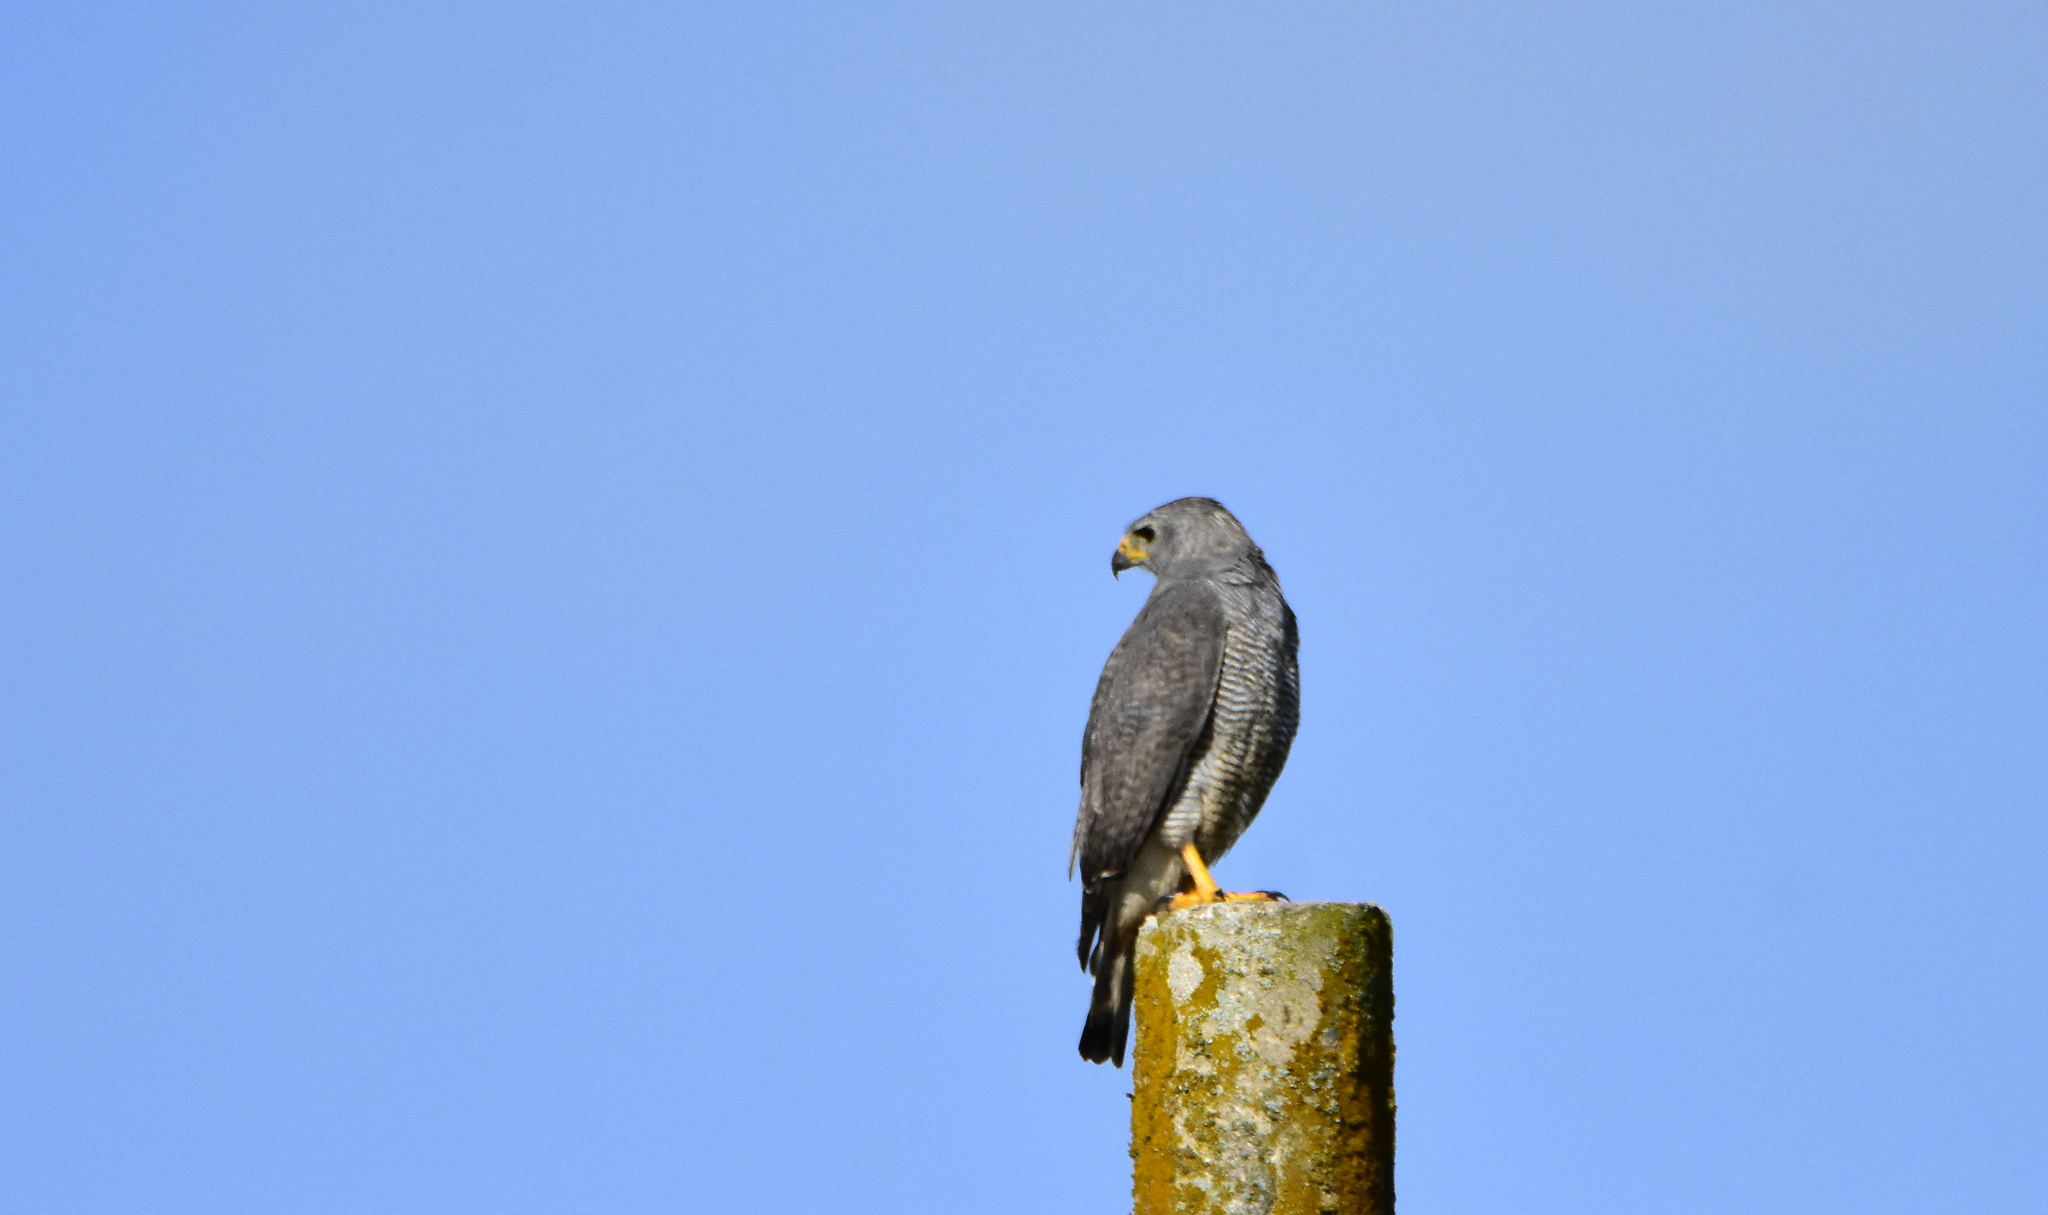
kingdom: Animalia
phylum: Chordata
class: Aves
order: Accipitriformes
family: Accipitridae
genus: Buteo
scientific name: Buteo nitidus
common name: Grey-lined hawk
